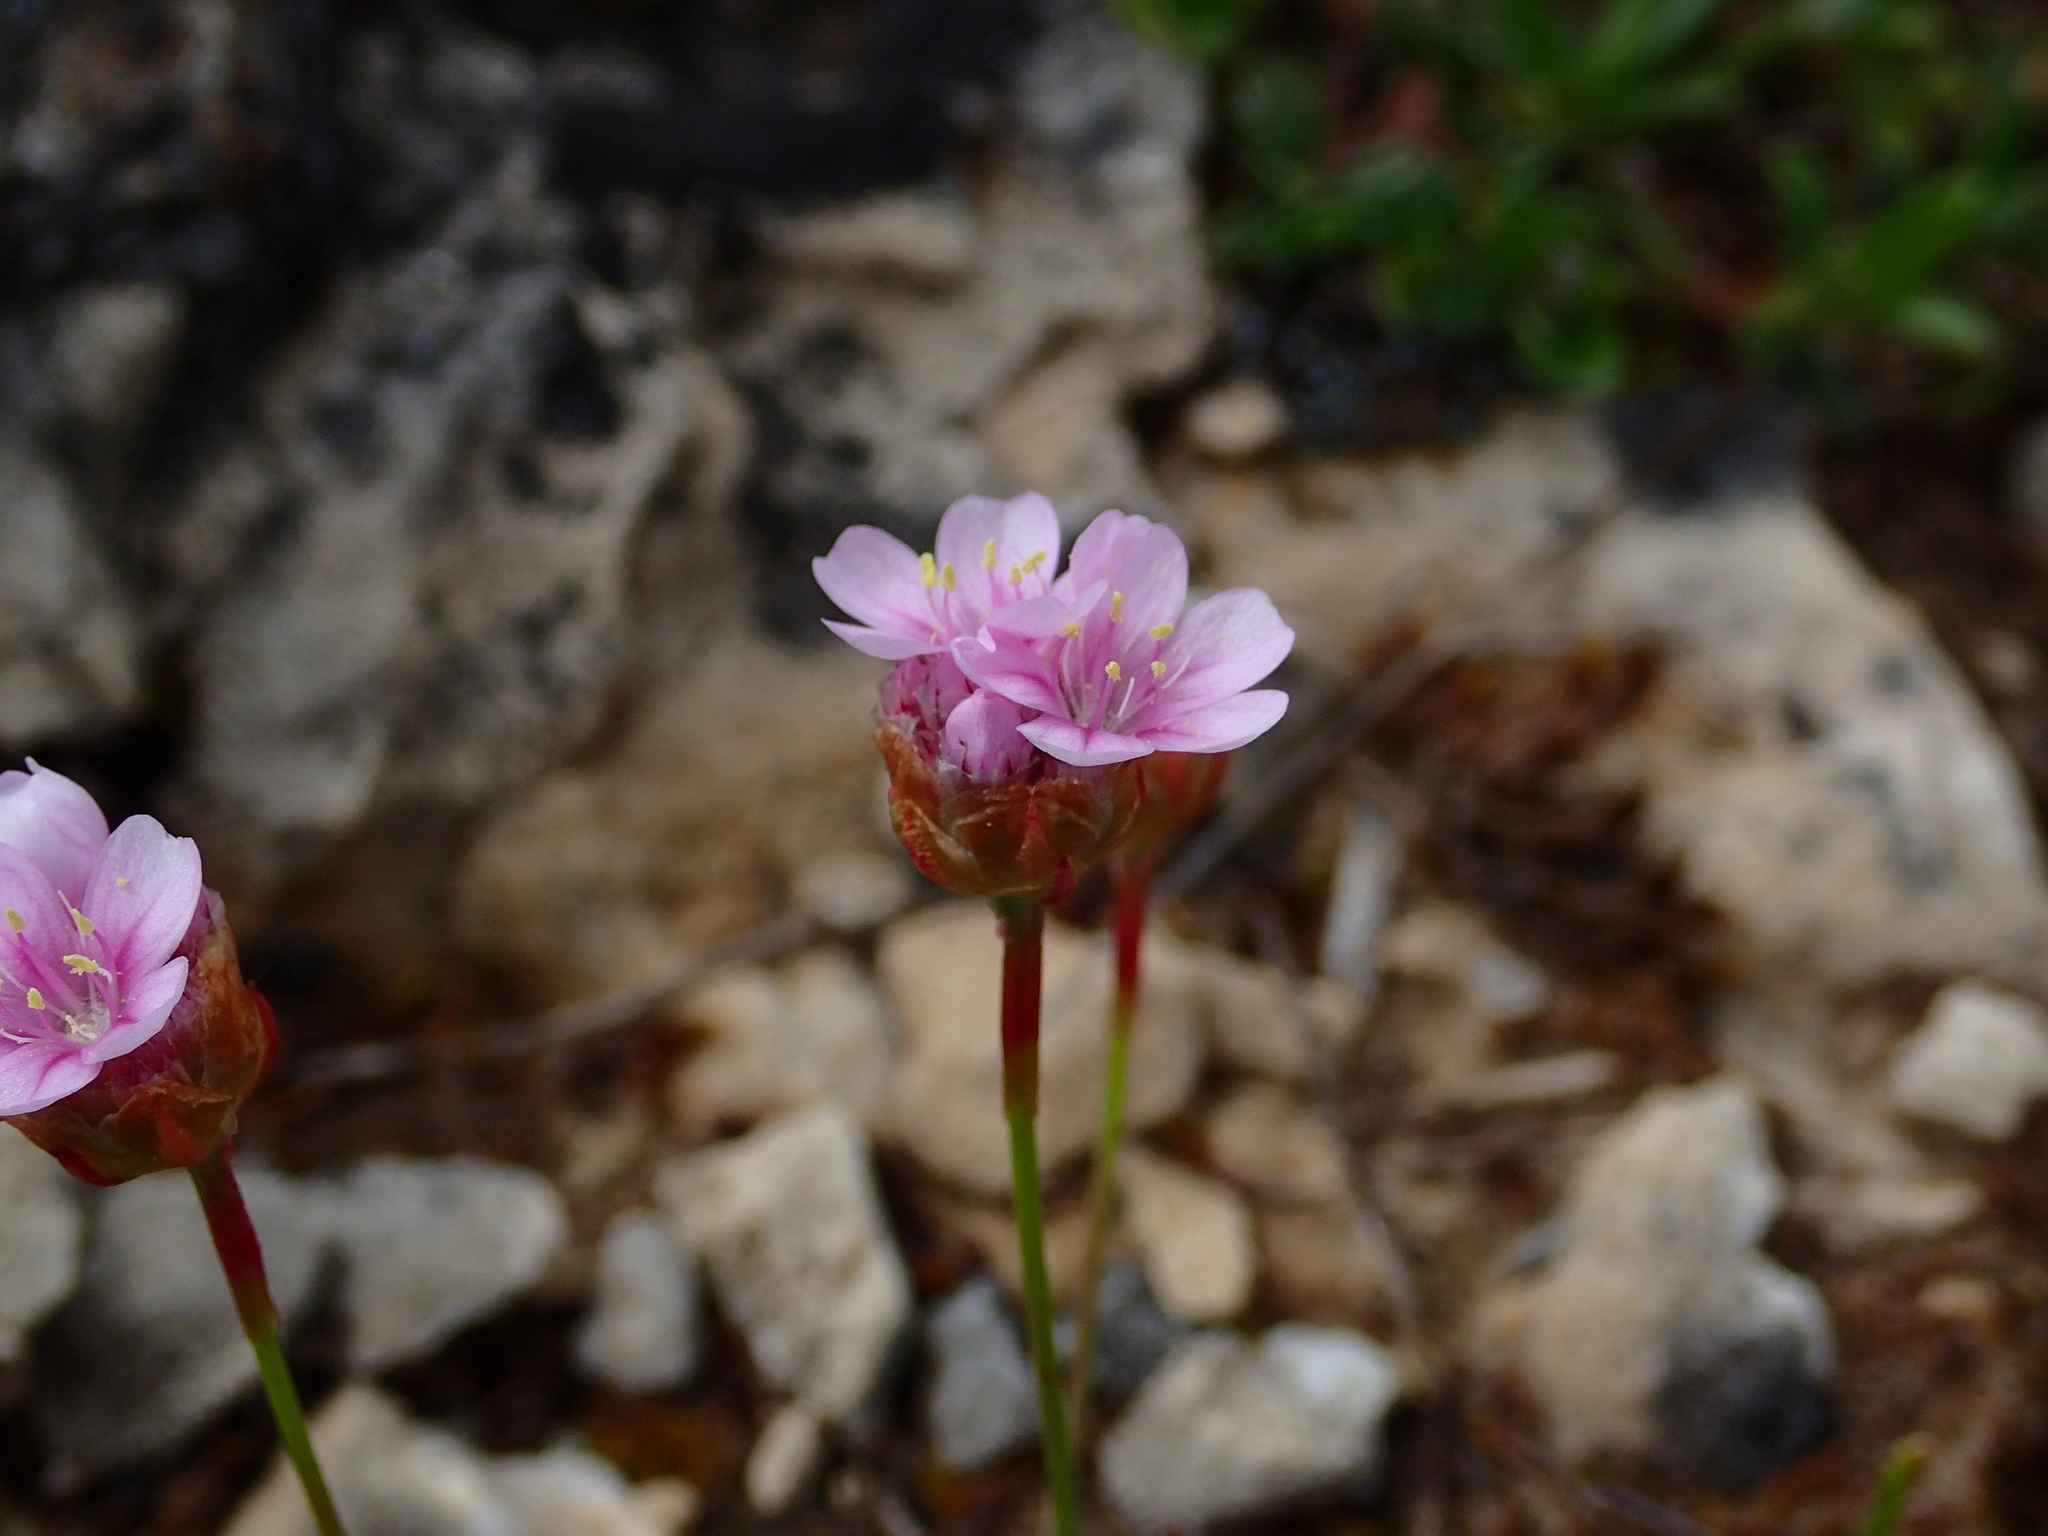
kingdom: Plantae
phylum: Tracheophyta
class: Magnoliopsida
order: Caryophyllales
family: Plumbaginaceae
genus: Armeria
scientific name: Armeria girardii
